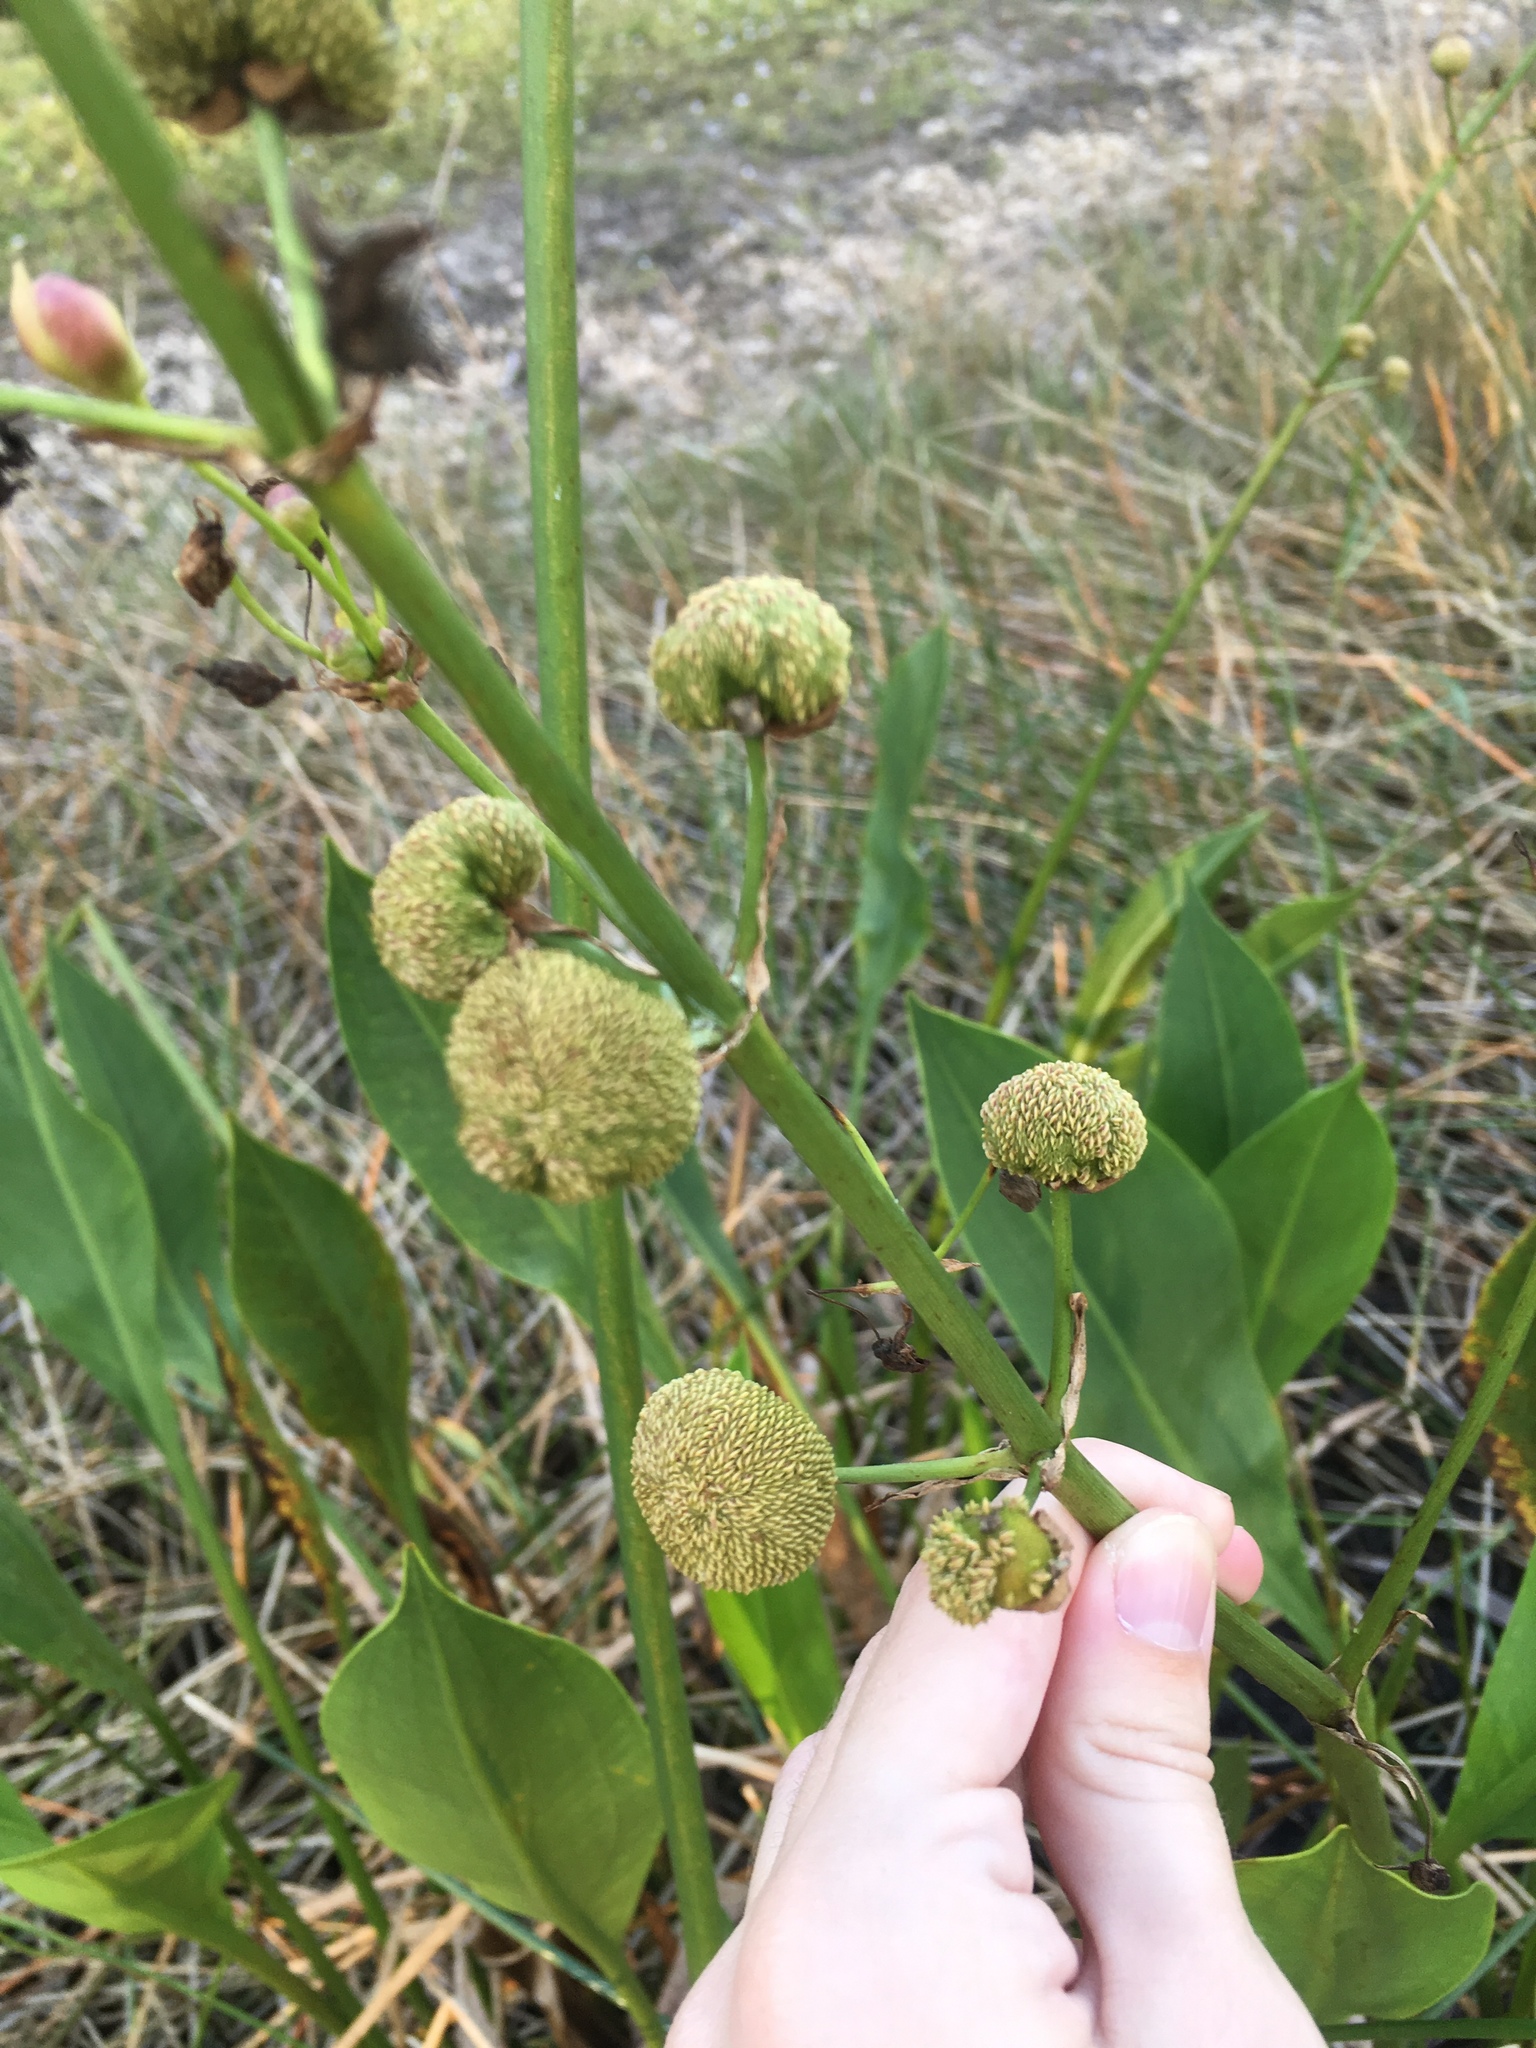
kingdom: Plantae
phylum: Tracheophyta
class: Liliopsida
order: Alismatales
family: Alismataceae
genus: Sagittaria
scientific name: Sagittaria lancifolia
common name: Lance-leaf arrowhead
